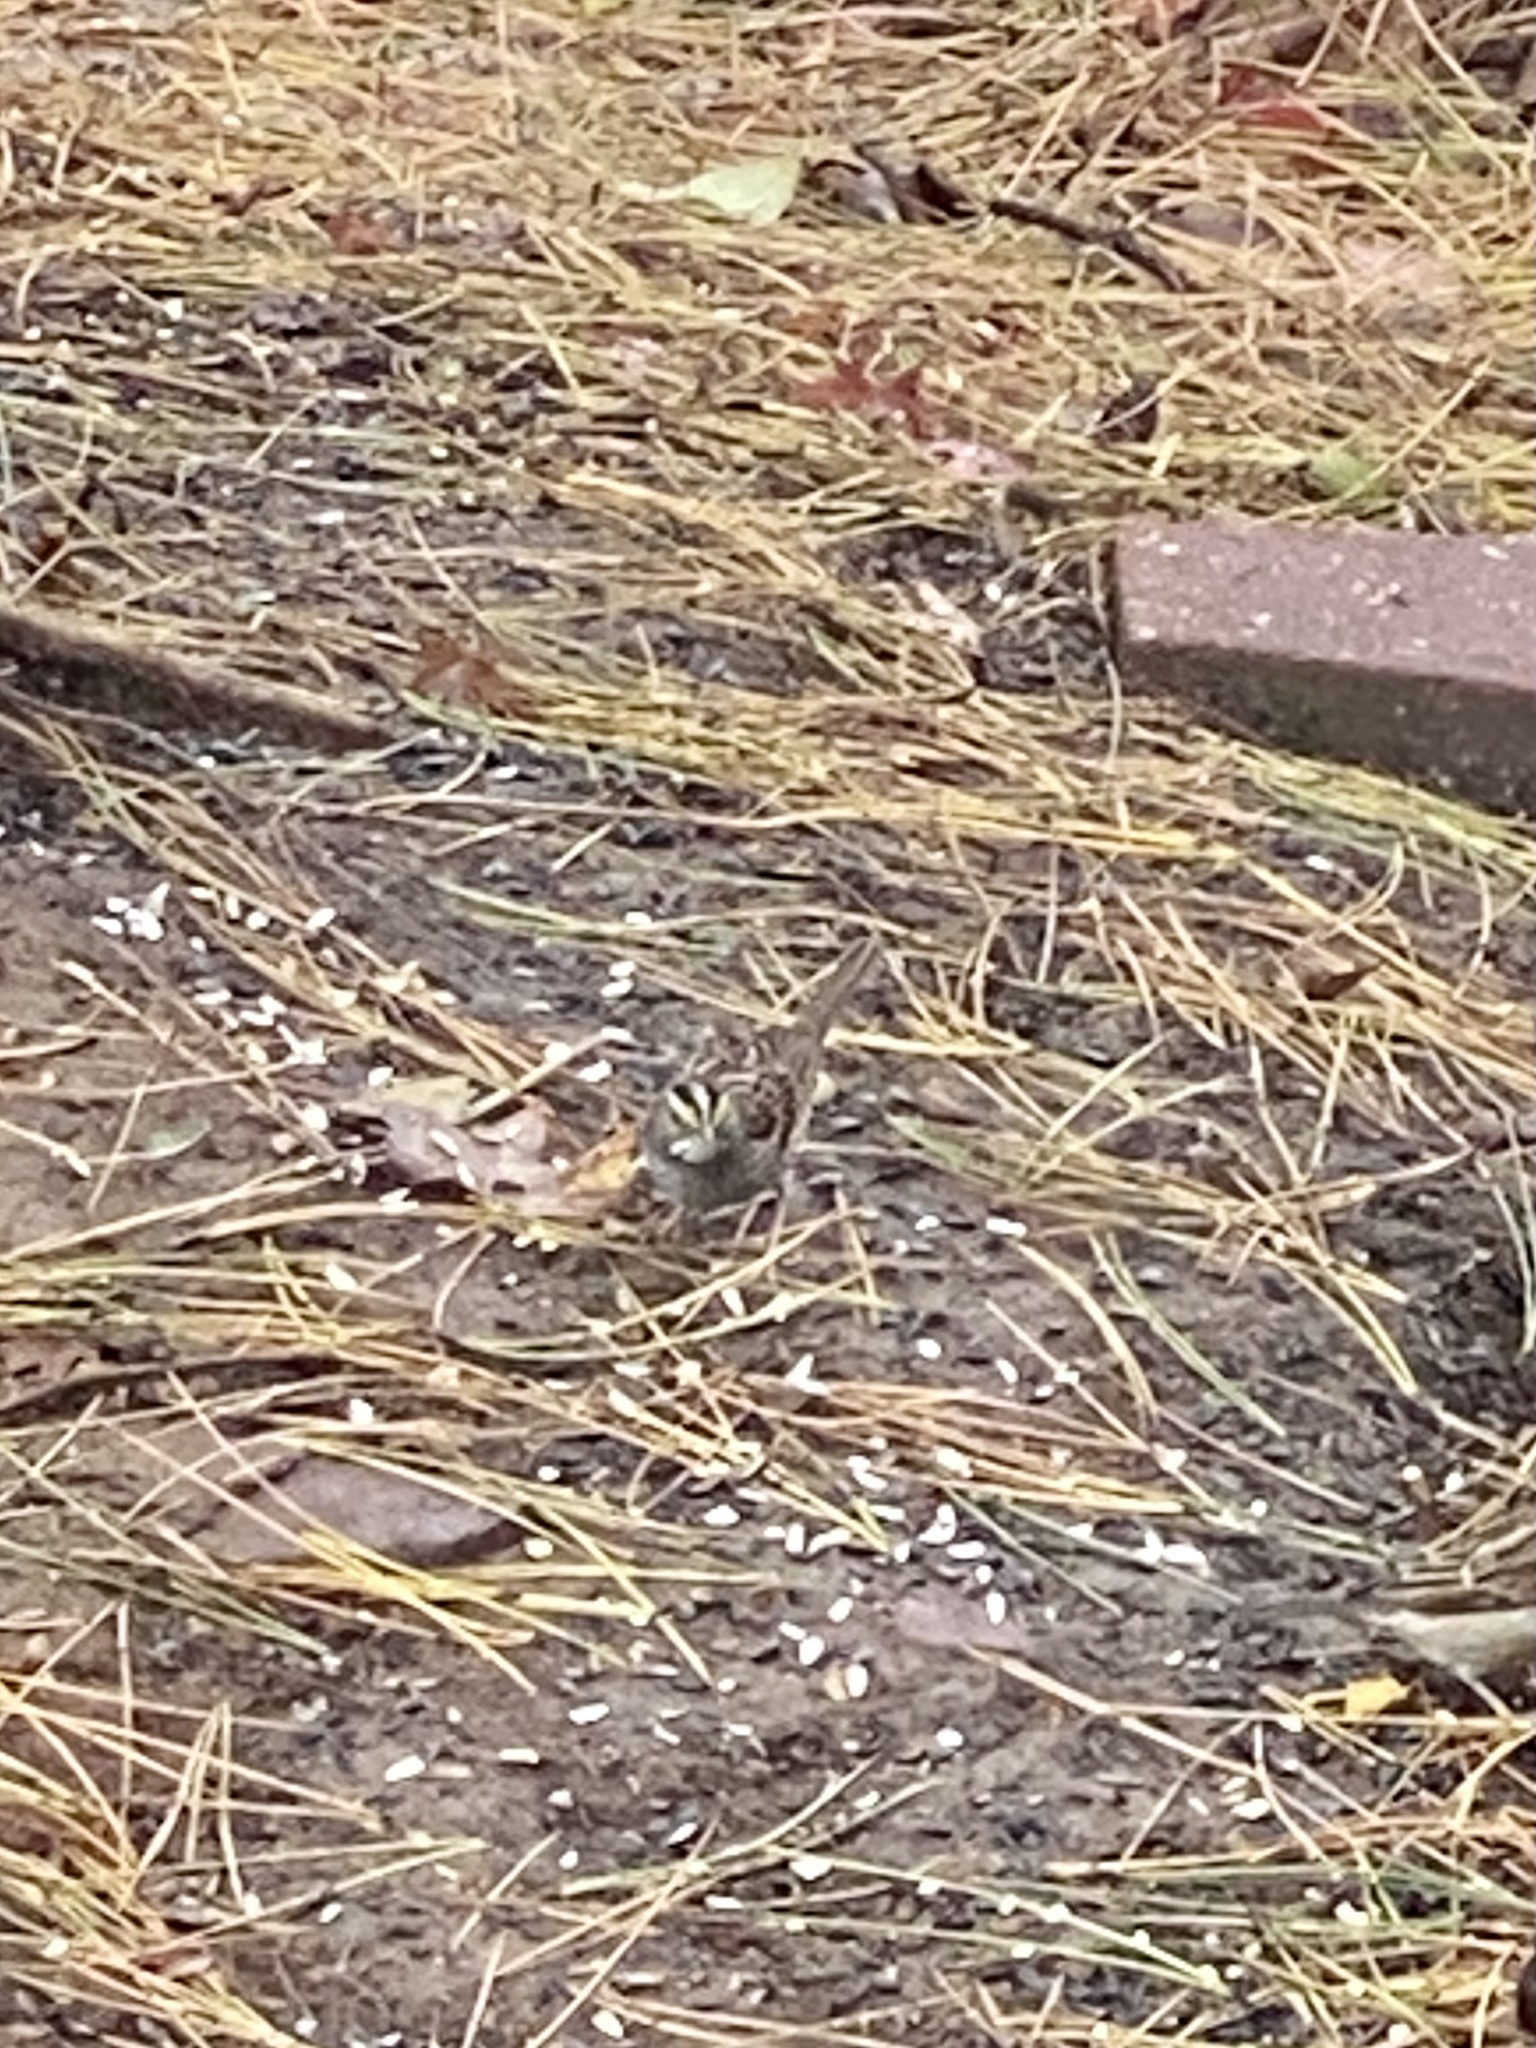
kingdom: Animalia
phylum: Chordata
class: Aves
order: Passeriformes
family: Passerellidae
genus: Zonotrichia
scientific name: Zonotrichia albicollis
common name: White-throated sparrow
